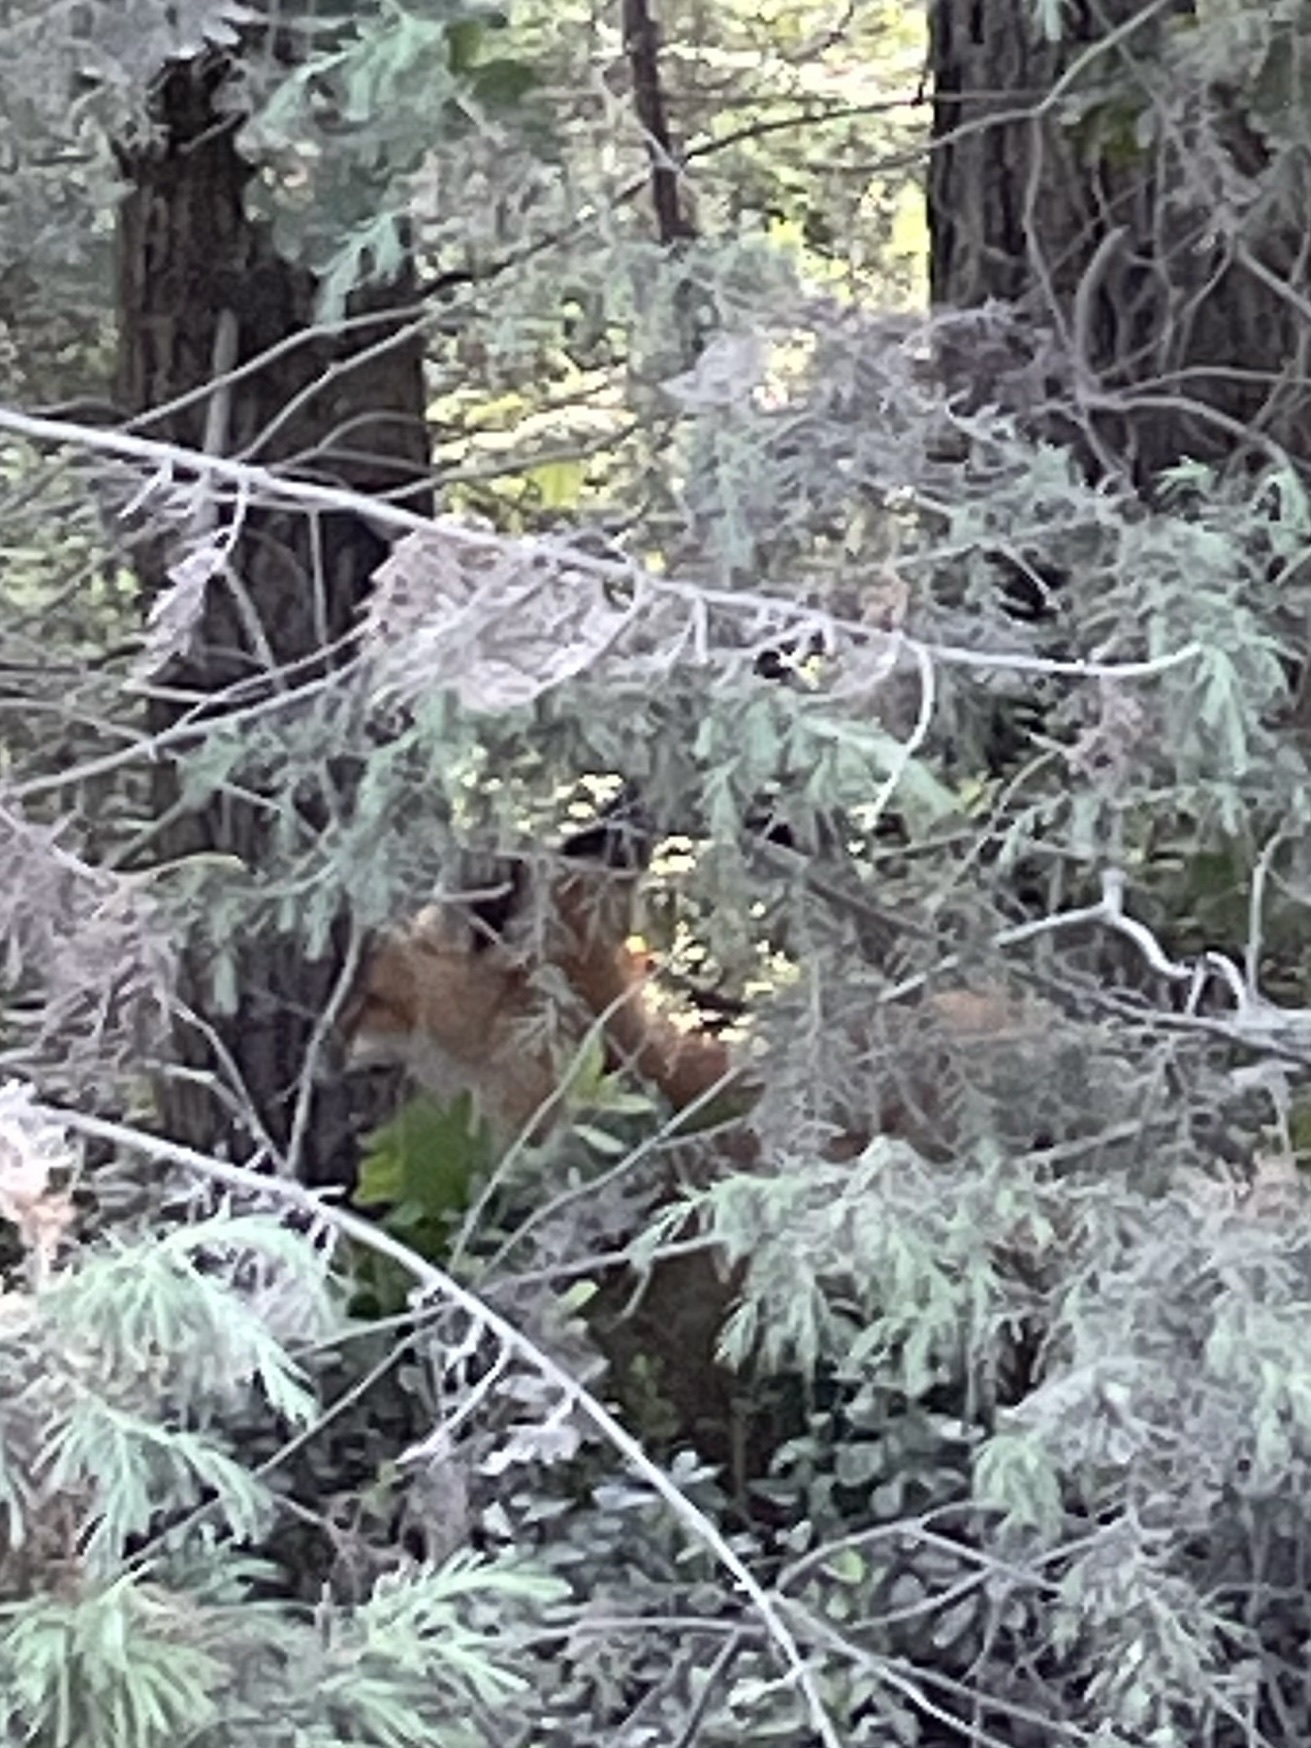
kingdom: Animalia
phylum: Chordata
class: Mammalia
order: Carnivora
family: Canidae
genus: Vulpes
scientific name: Vulpes vulpes
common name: Red fox
